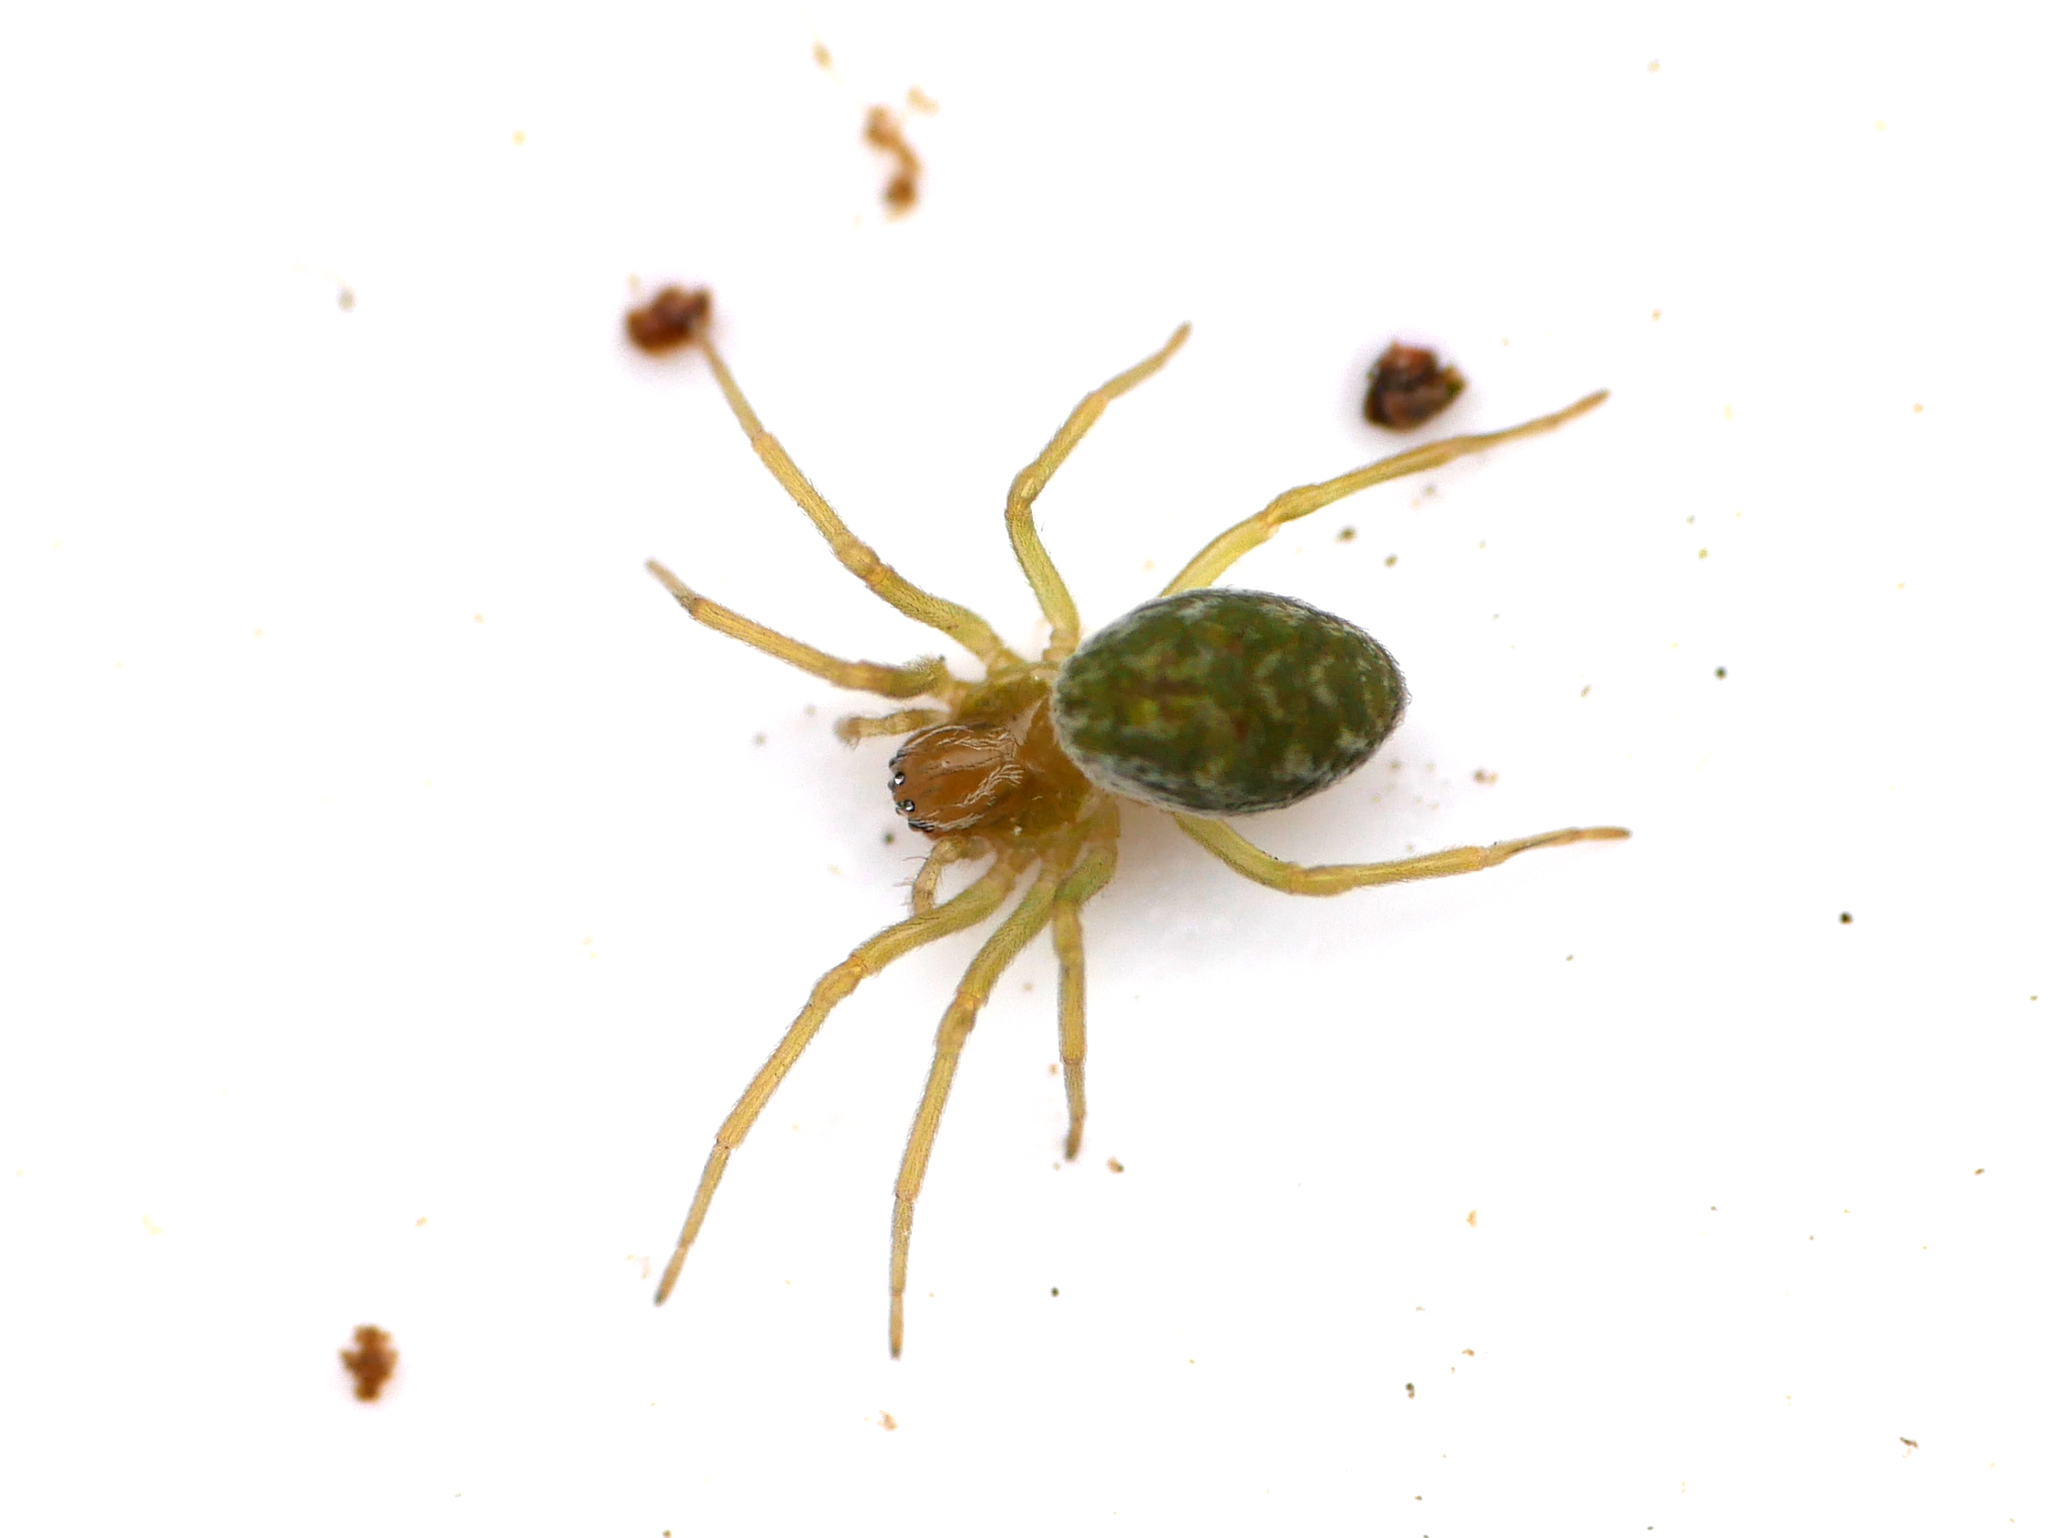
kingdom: Animalia
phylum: Arthropoda
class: Arachnida
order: Araneae
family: Dictynidae
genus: Nigma
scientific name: Nigma walckenaeri
